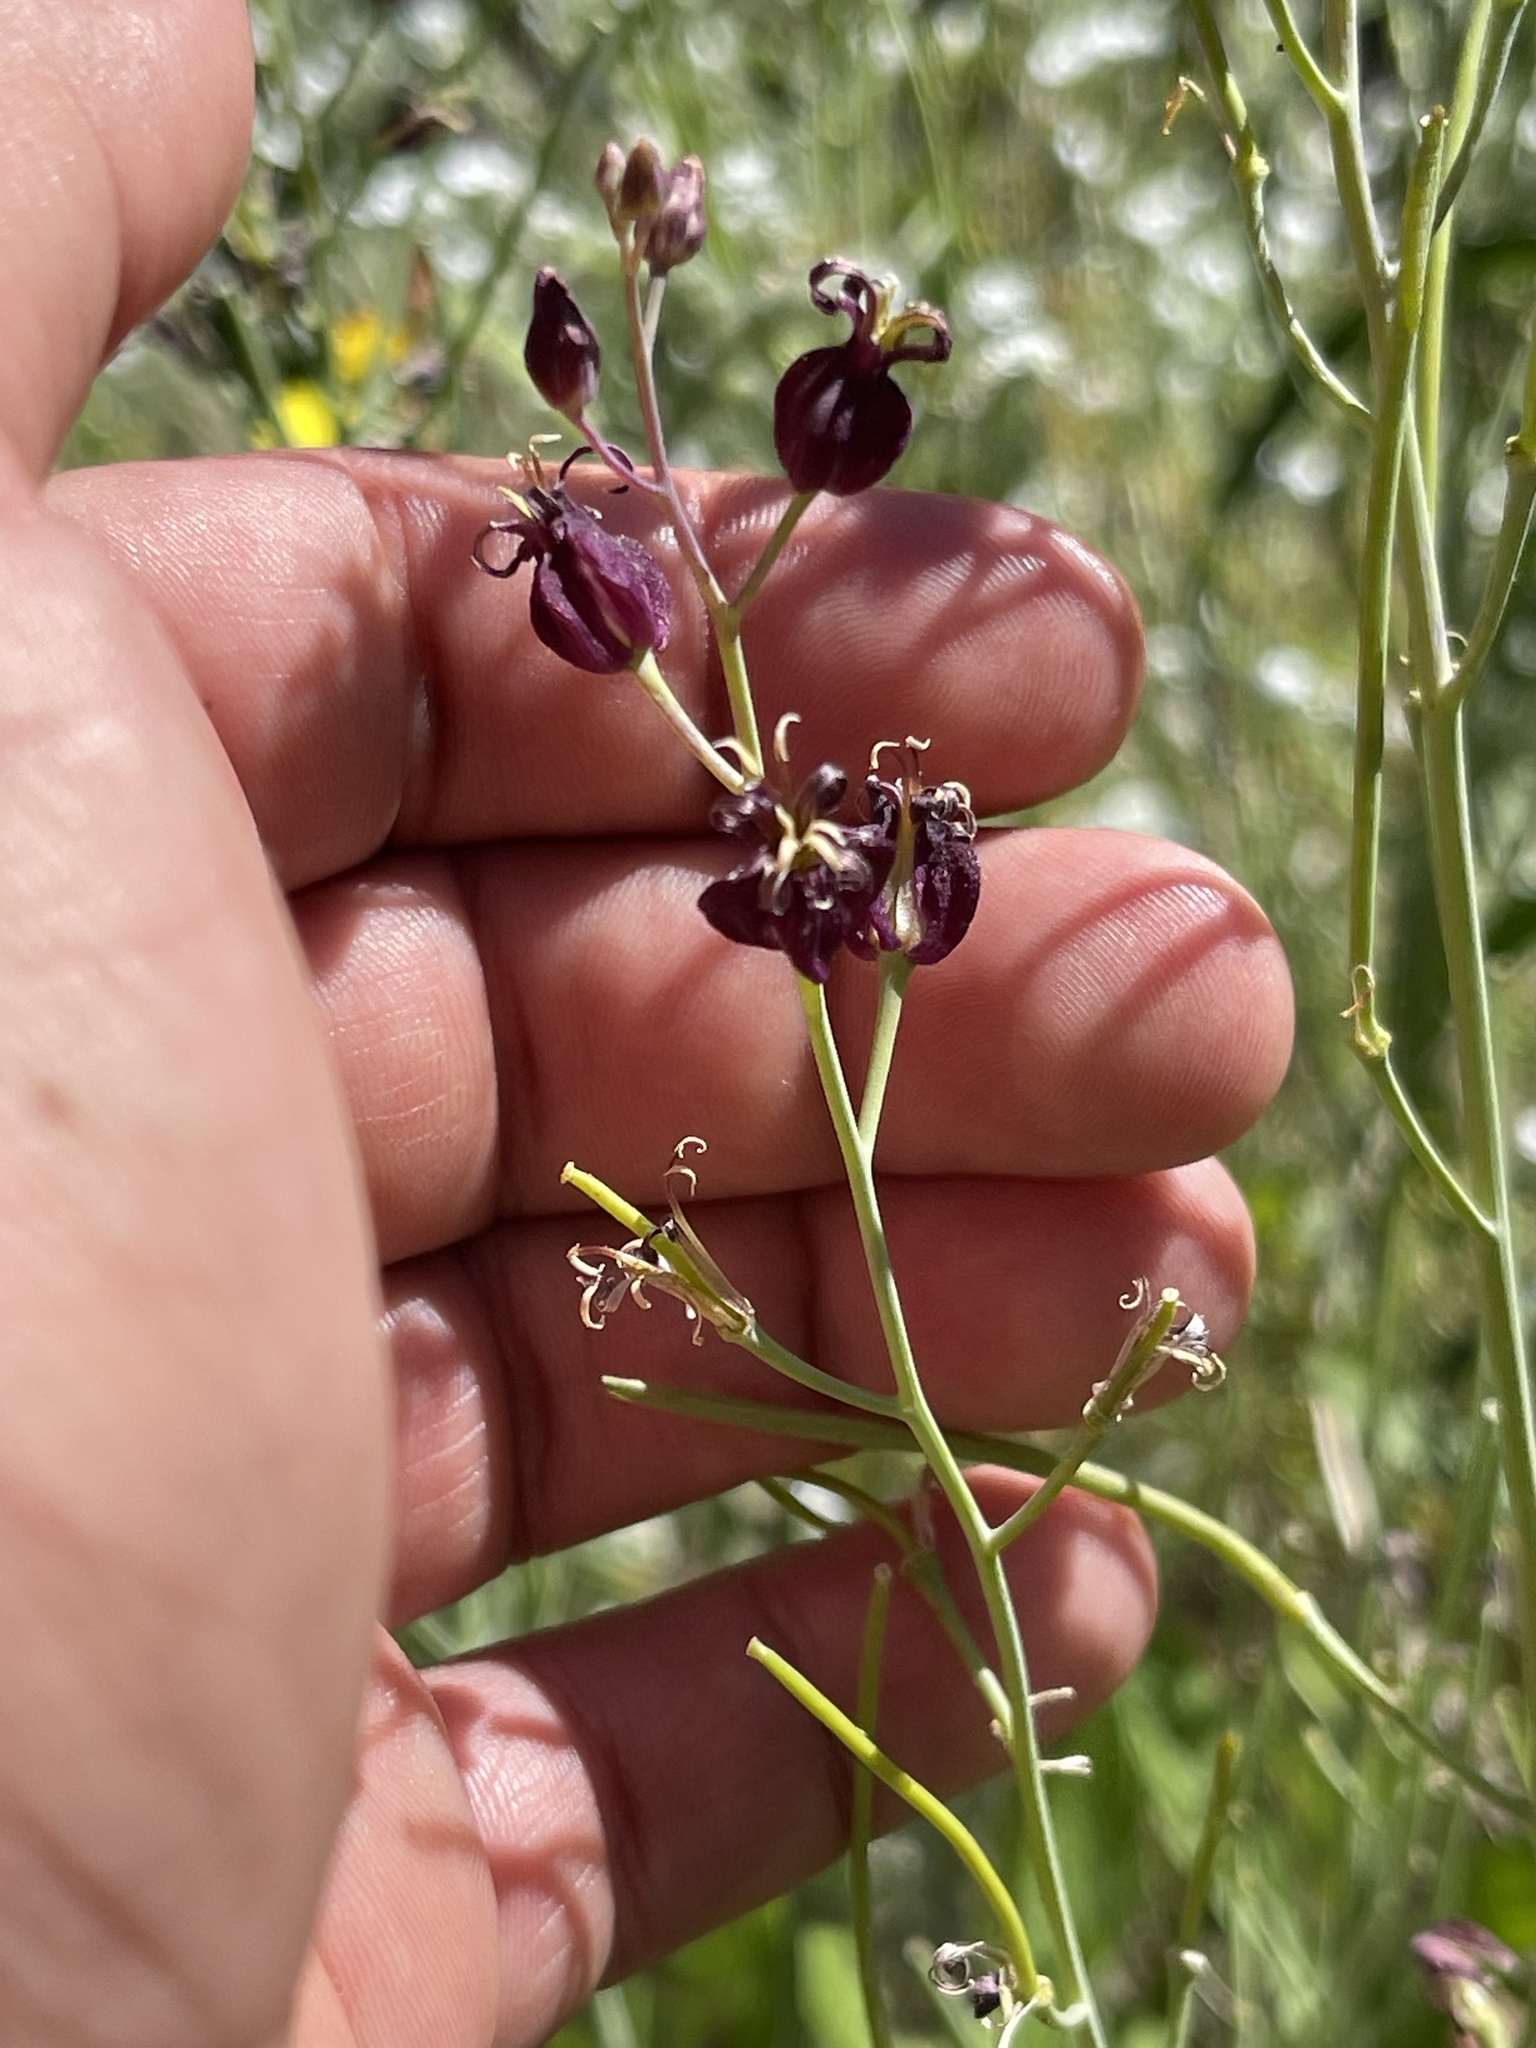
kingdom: Plantae
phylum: Tracheophyta
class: Magnoliopsida
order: Brassicales
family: Brassicaceae
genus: Streptanthus
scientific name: Streptanthus amplexicaulis
